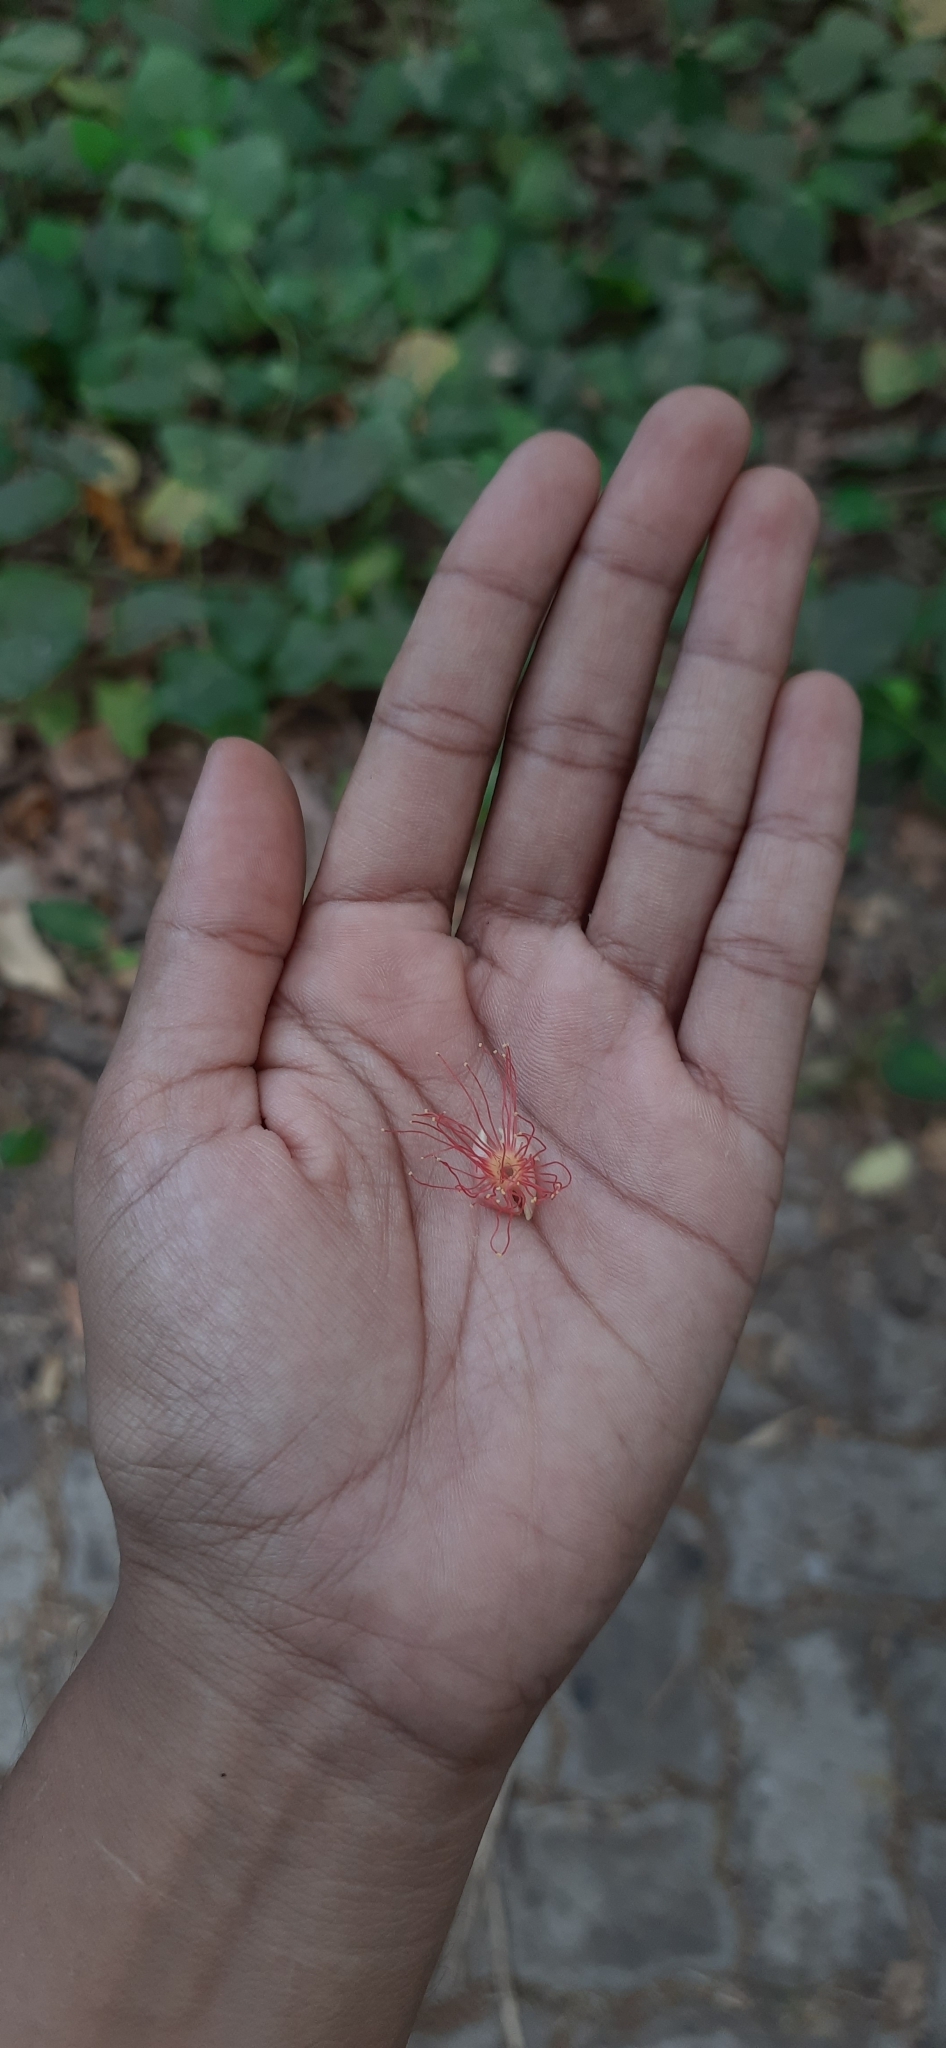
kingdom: Plantae
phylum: Tracheophyta
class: Magnoliopsida
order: Ericales
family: Lecythidaceae
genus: Barringtonia
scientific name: Barringtonia acutangula
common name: Freshwater mangrove
